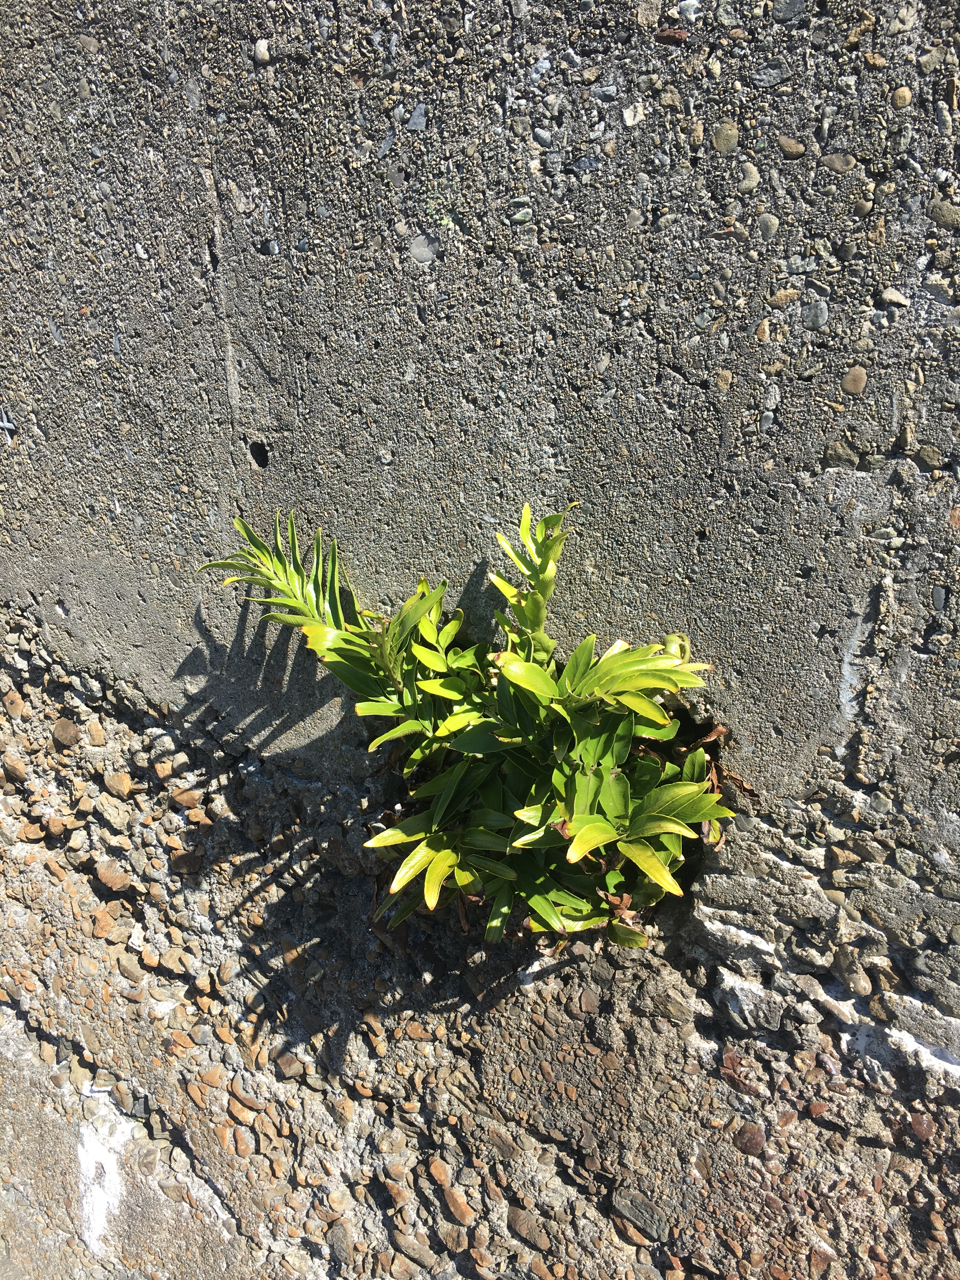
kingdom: Plantae
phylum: Tracheophyta
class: Polypodiopsida
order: Polypodiales
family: Aspleniaceae
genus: Asplenium
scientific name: Asplenium oblongifolium
